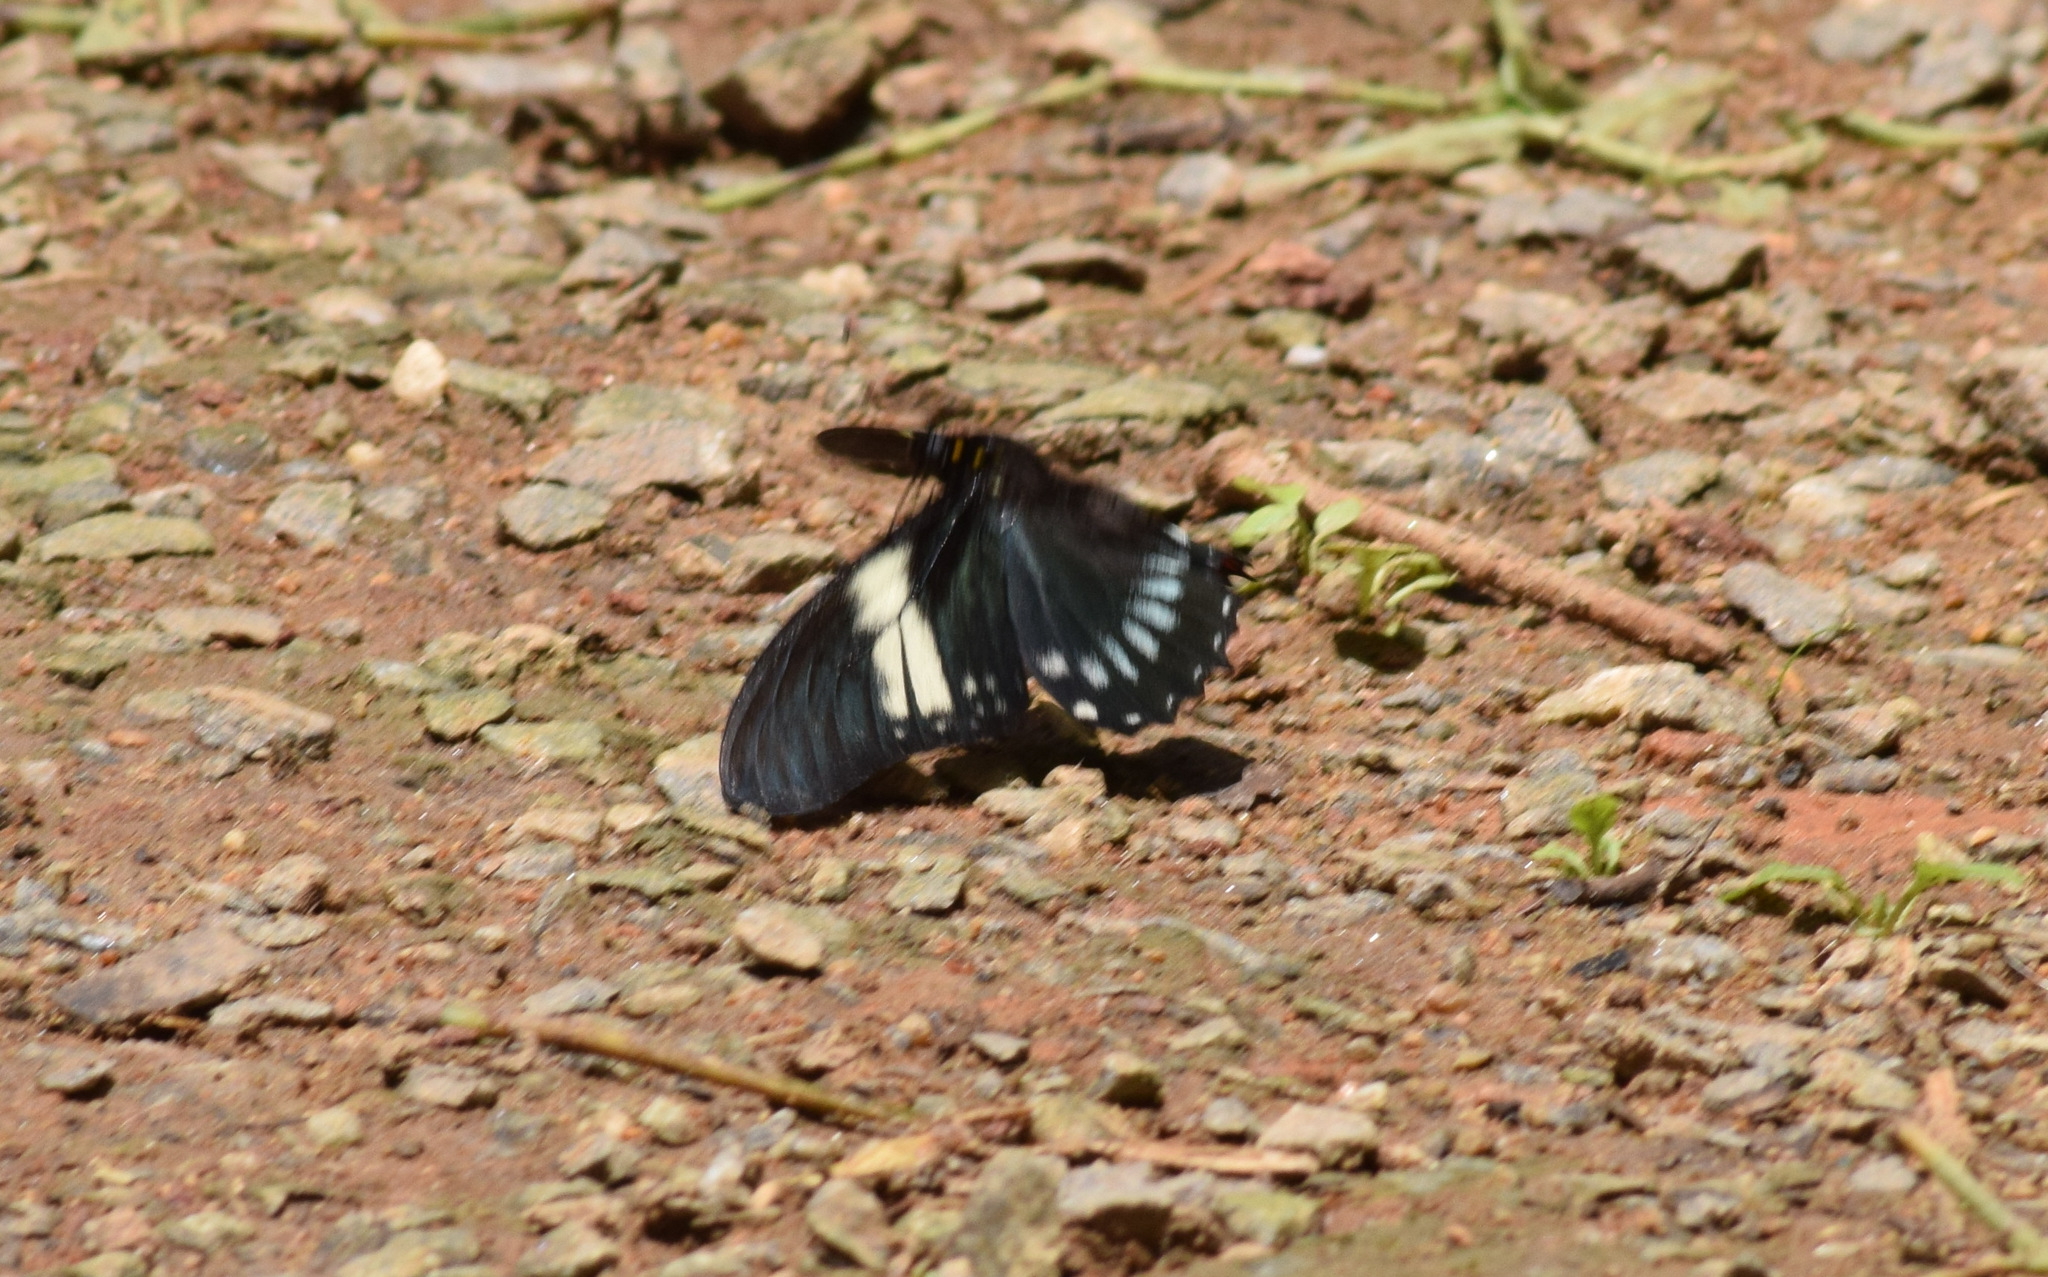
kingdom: Animalia
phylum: Arthropoda
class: Insecta
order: Lepidoptera
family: Papilionidae
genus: Mimoides
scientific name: Mimoides protodamas
